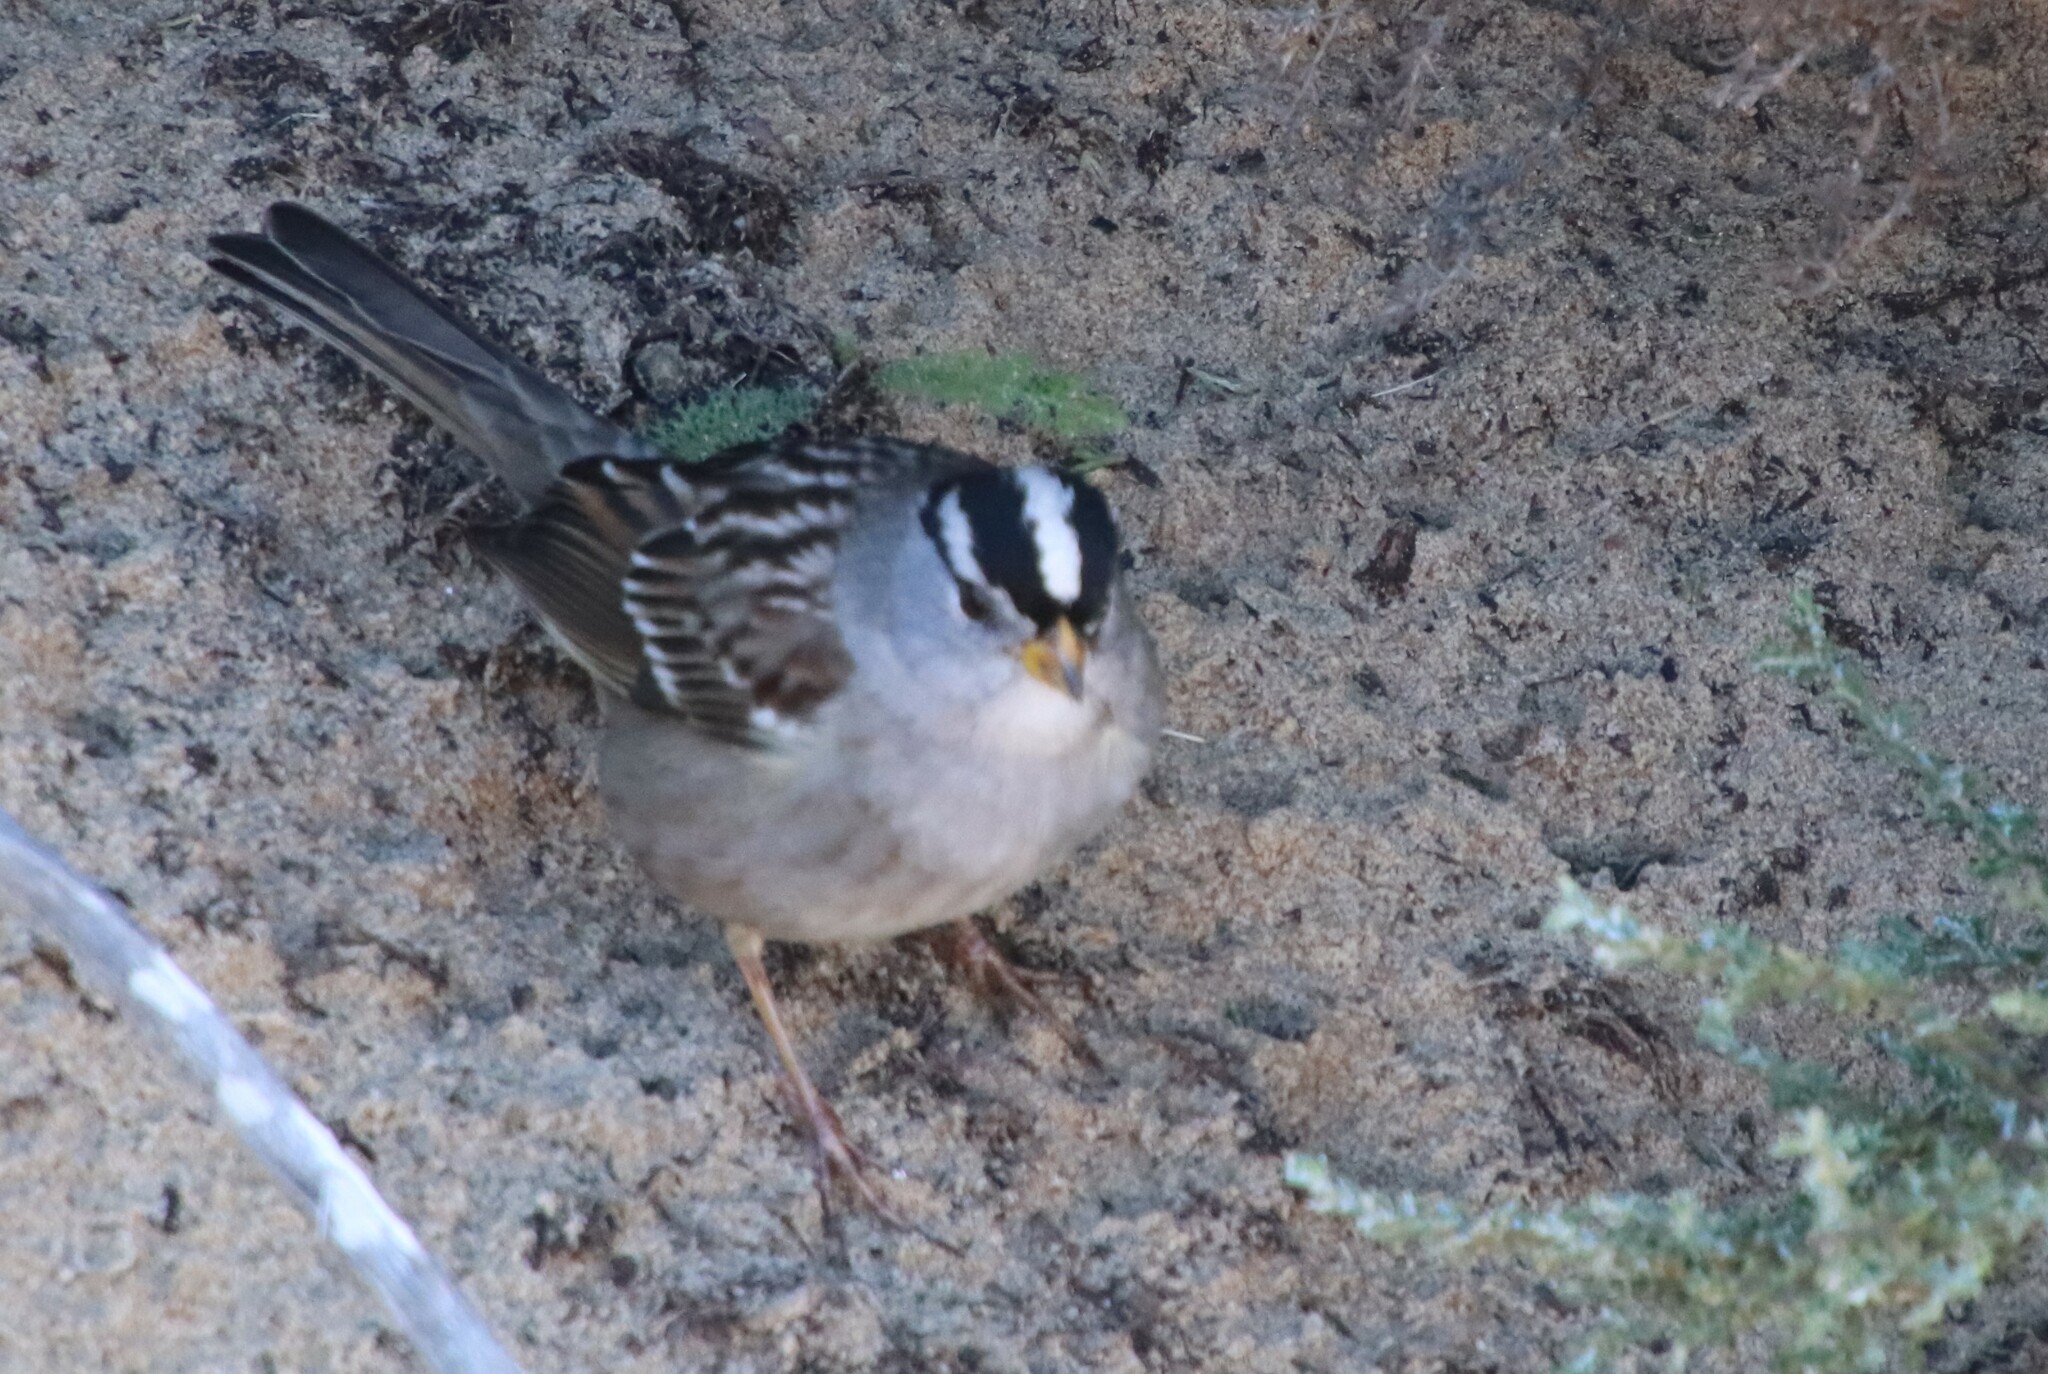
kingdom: Animalia
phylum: Chordata
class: Aves
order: Passeriformes
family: Passerellidae
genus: Zonotrichia
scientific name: Zonotrichia leucophrys
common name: White-crowned sparrow
